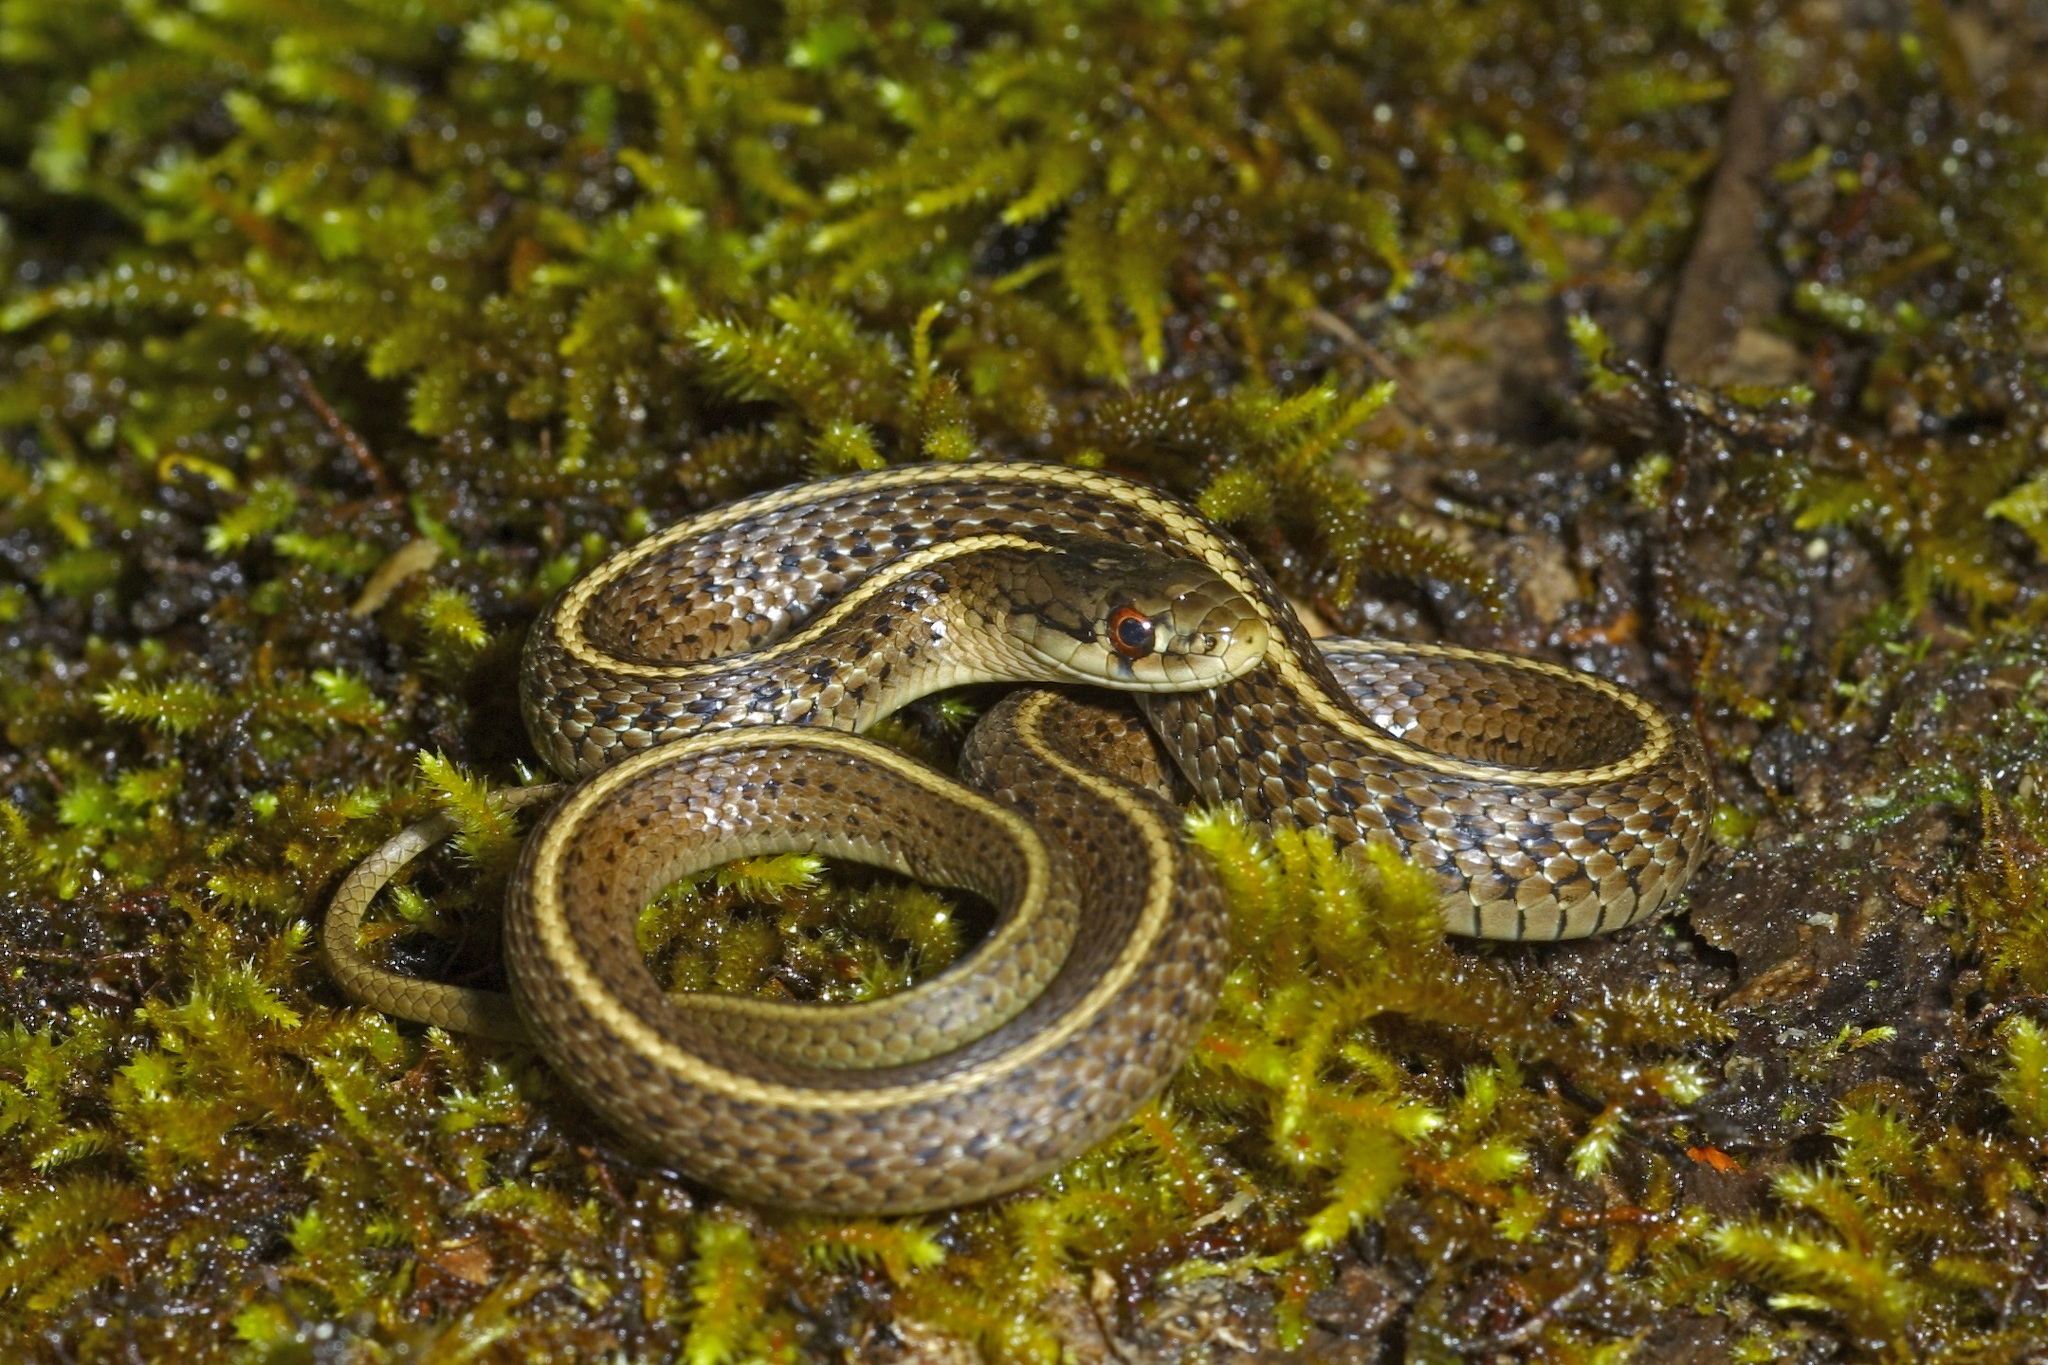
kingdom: Animalia
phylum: Chordata
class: Squamata
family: Colubridae
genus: Thamnophis
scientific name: Thamnophis ordinoides
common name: Northwestern garter snake
